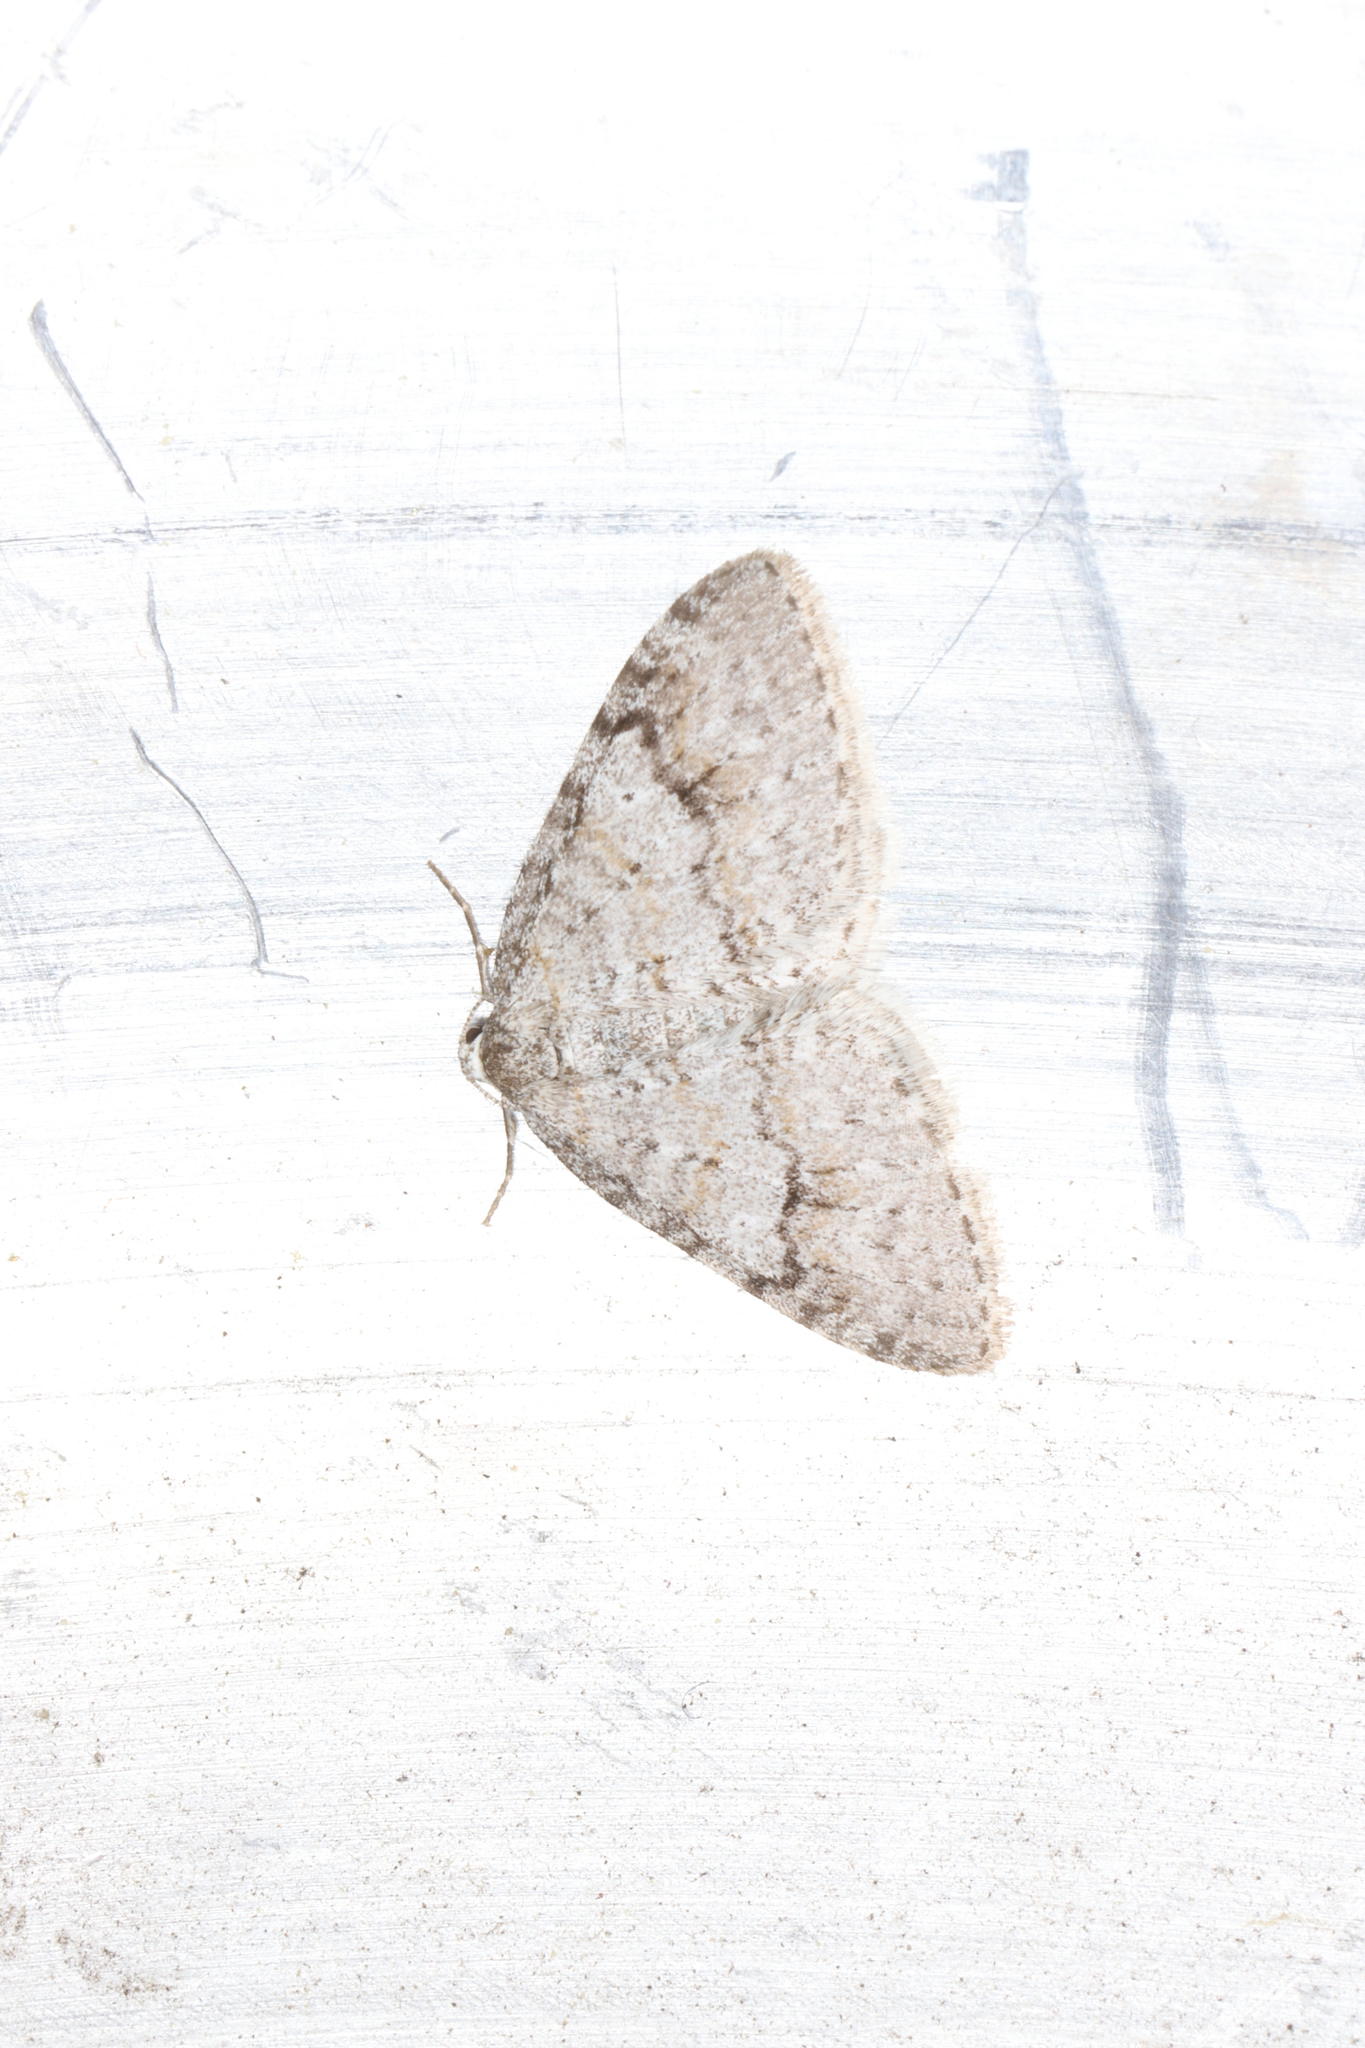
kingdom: Animalia
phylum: Arthropoda
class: Insecta
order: Lepidoptera
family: Geometridae
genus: Venusia
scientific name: Venusia comptaria
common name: Brown-shaded carpet
